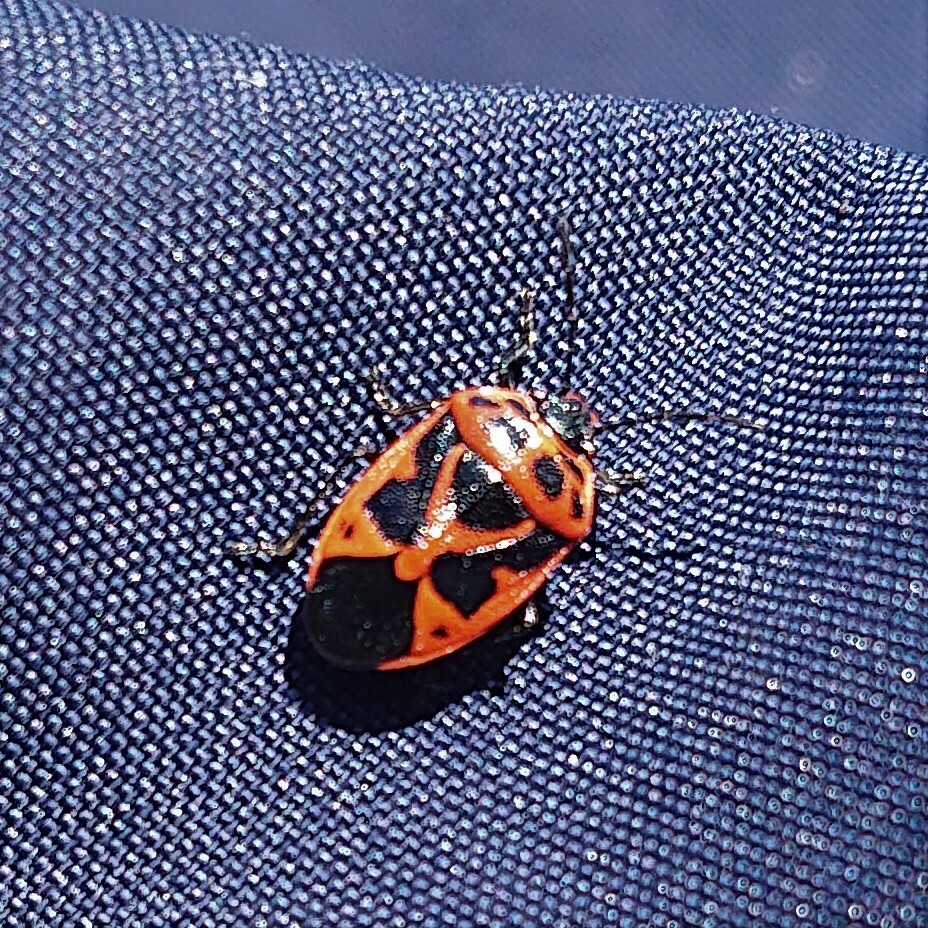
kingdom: Animalia
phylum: Arthropoda
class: Insecta
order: Hemiptera
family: Pentatomidae
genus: Eurydema
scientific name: Eurydema dominulus
